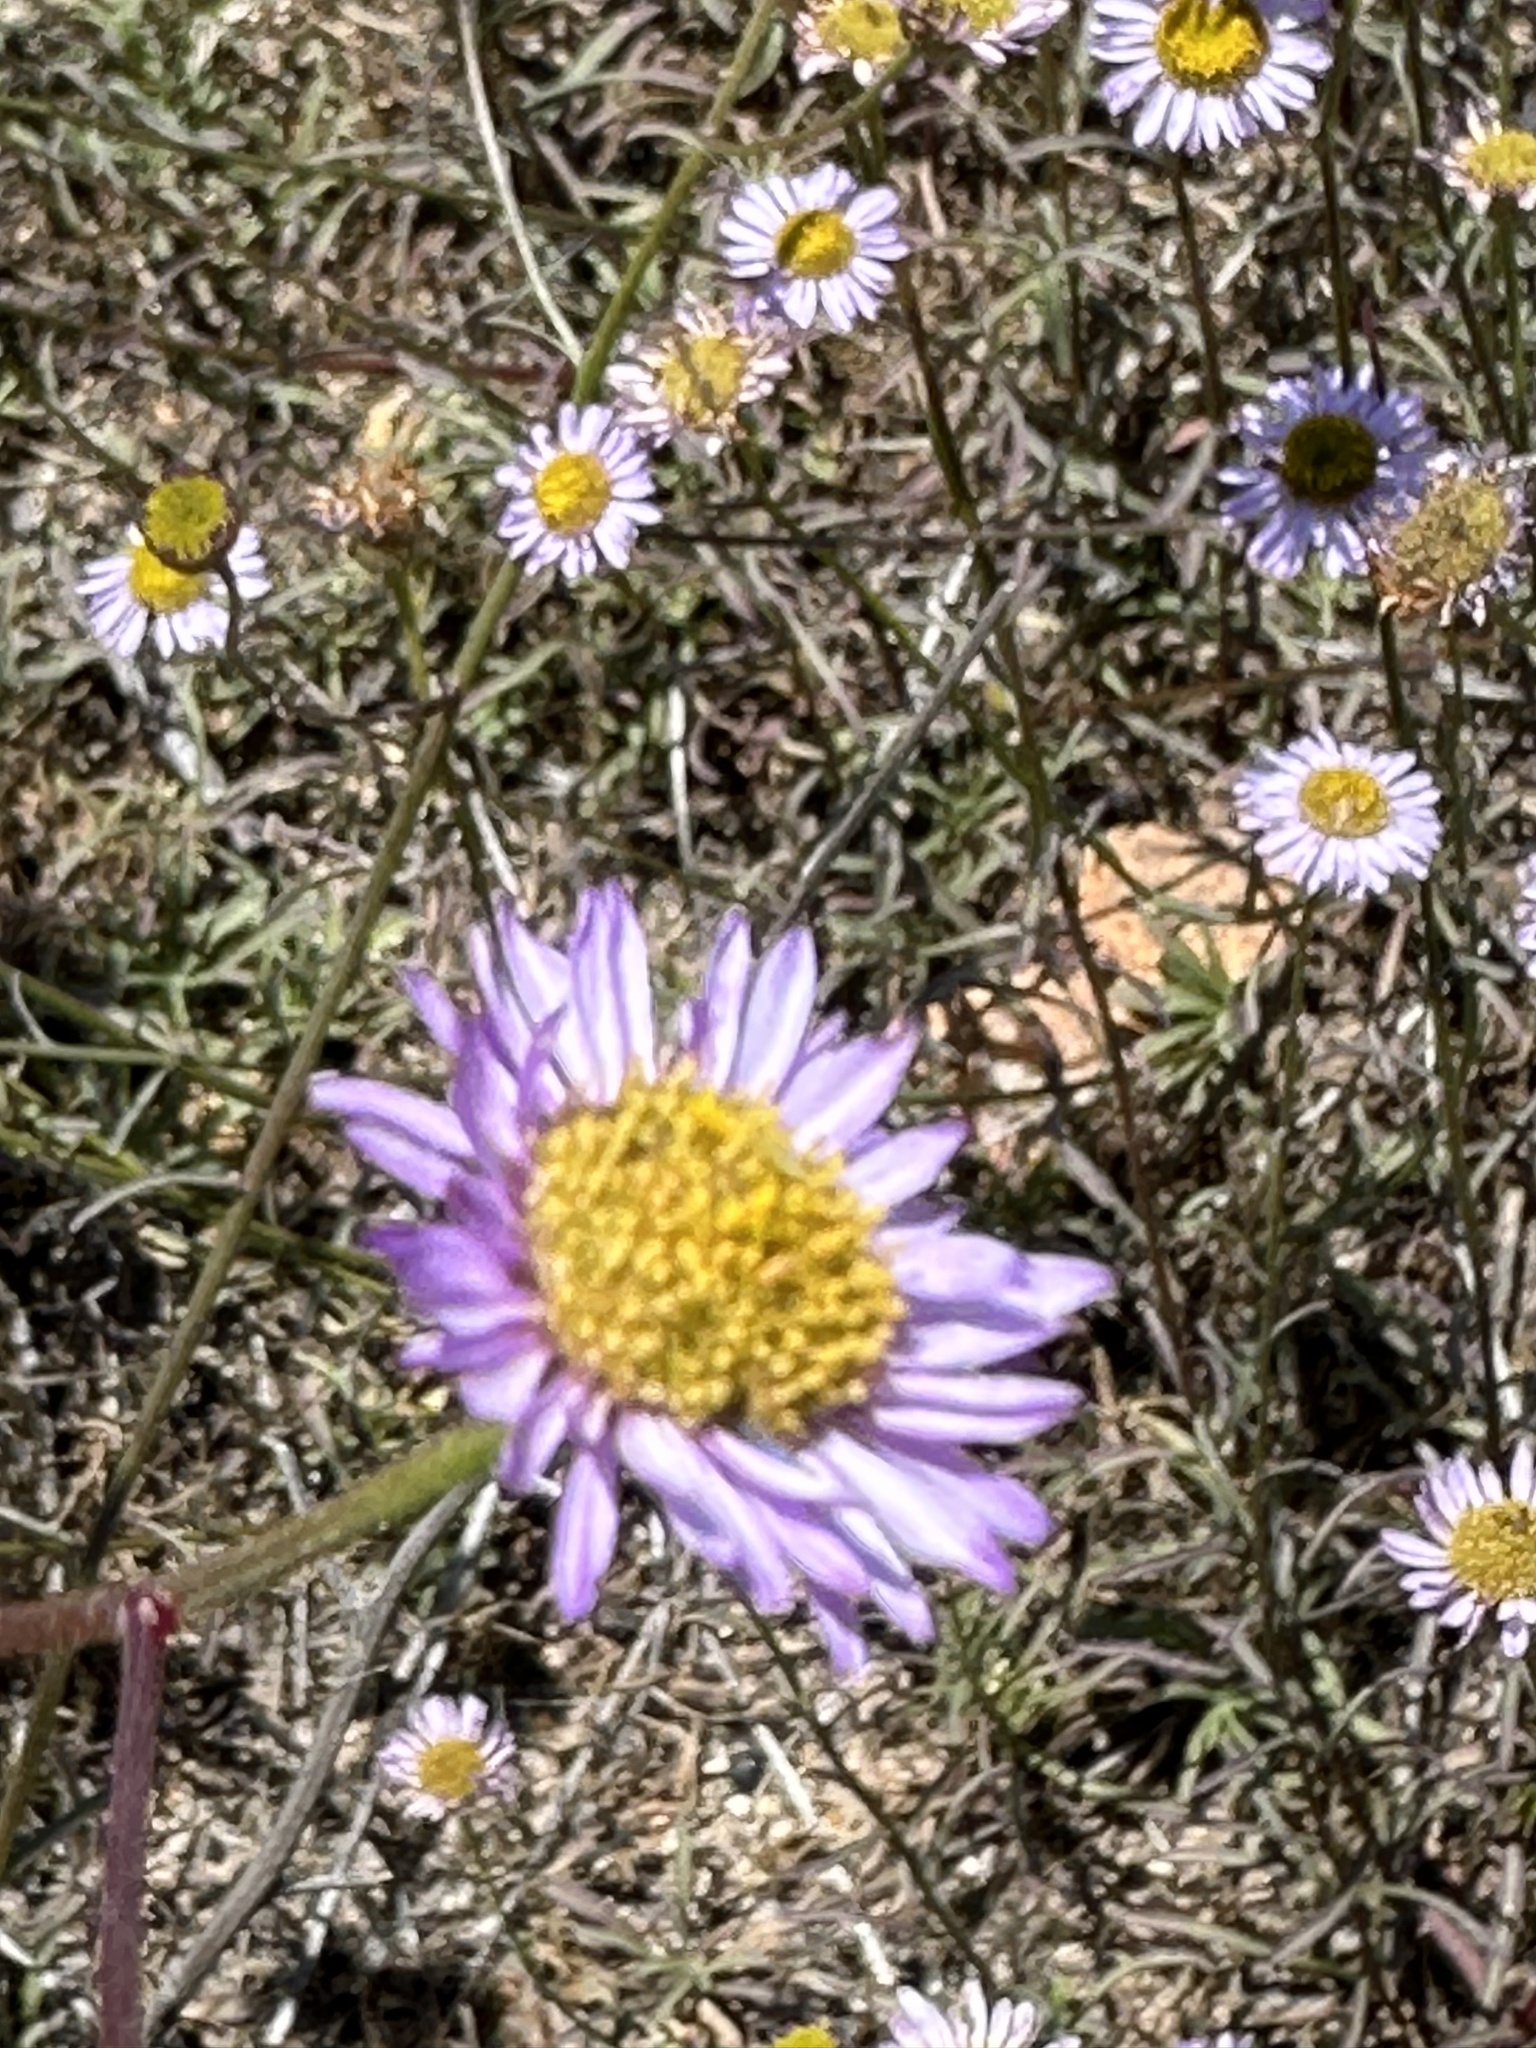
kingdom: Plantae
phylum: Tracheophyta
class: Magnoliopsida
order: Asterales
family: Asteraceae
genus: Erigeron
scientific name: Erigeron foliosus
